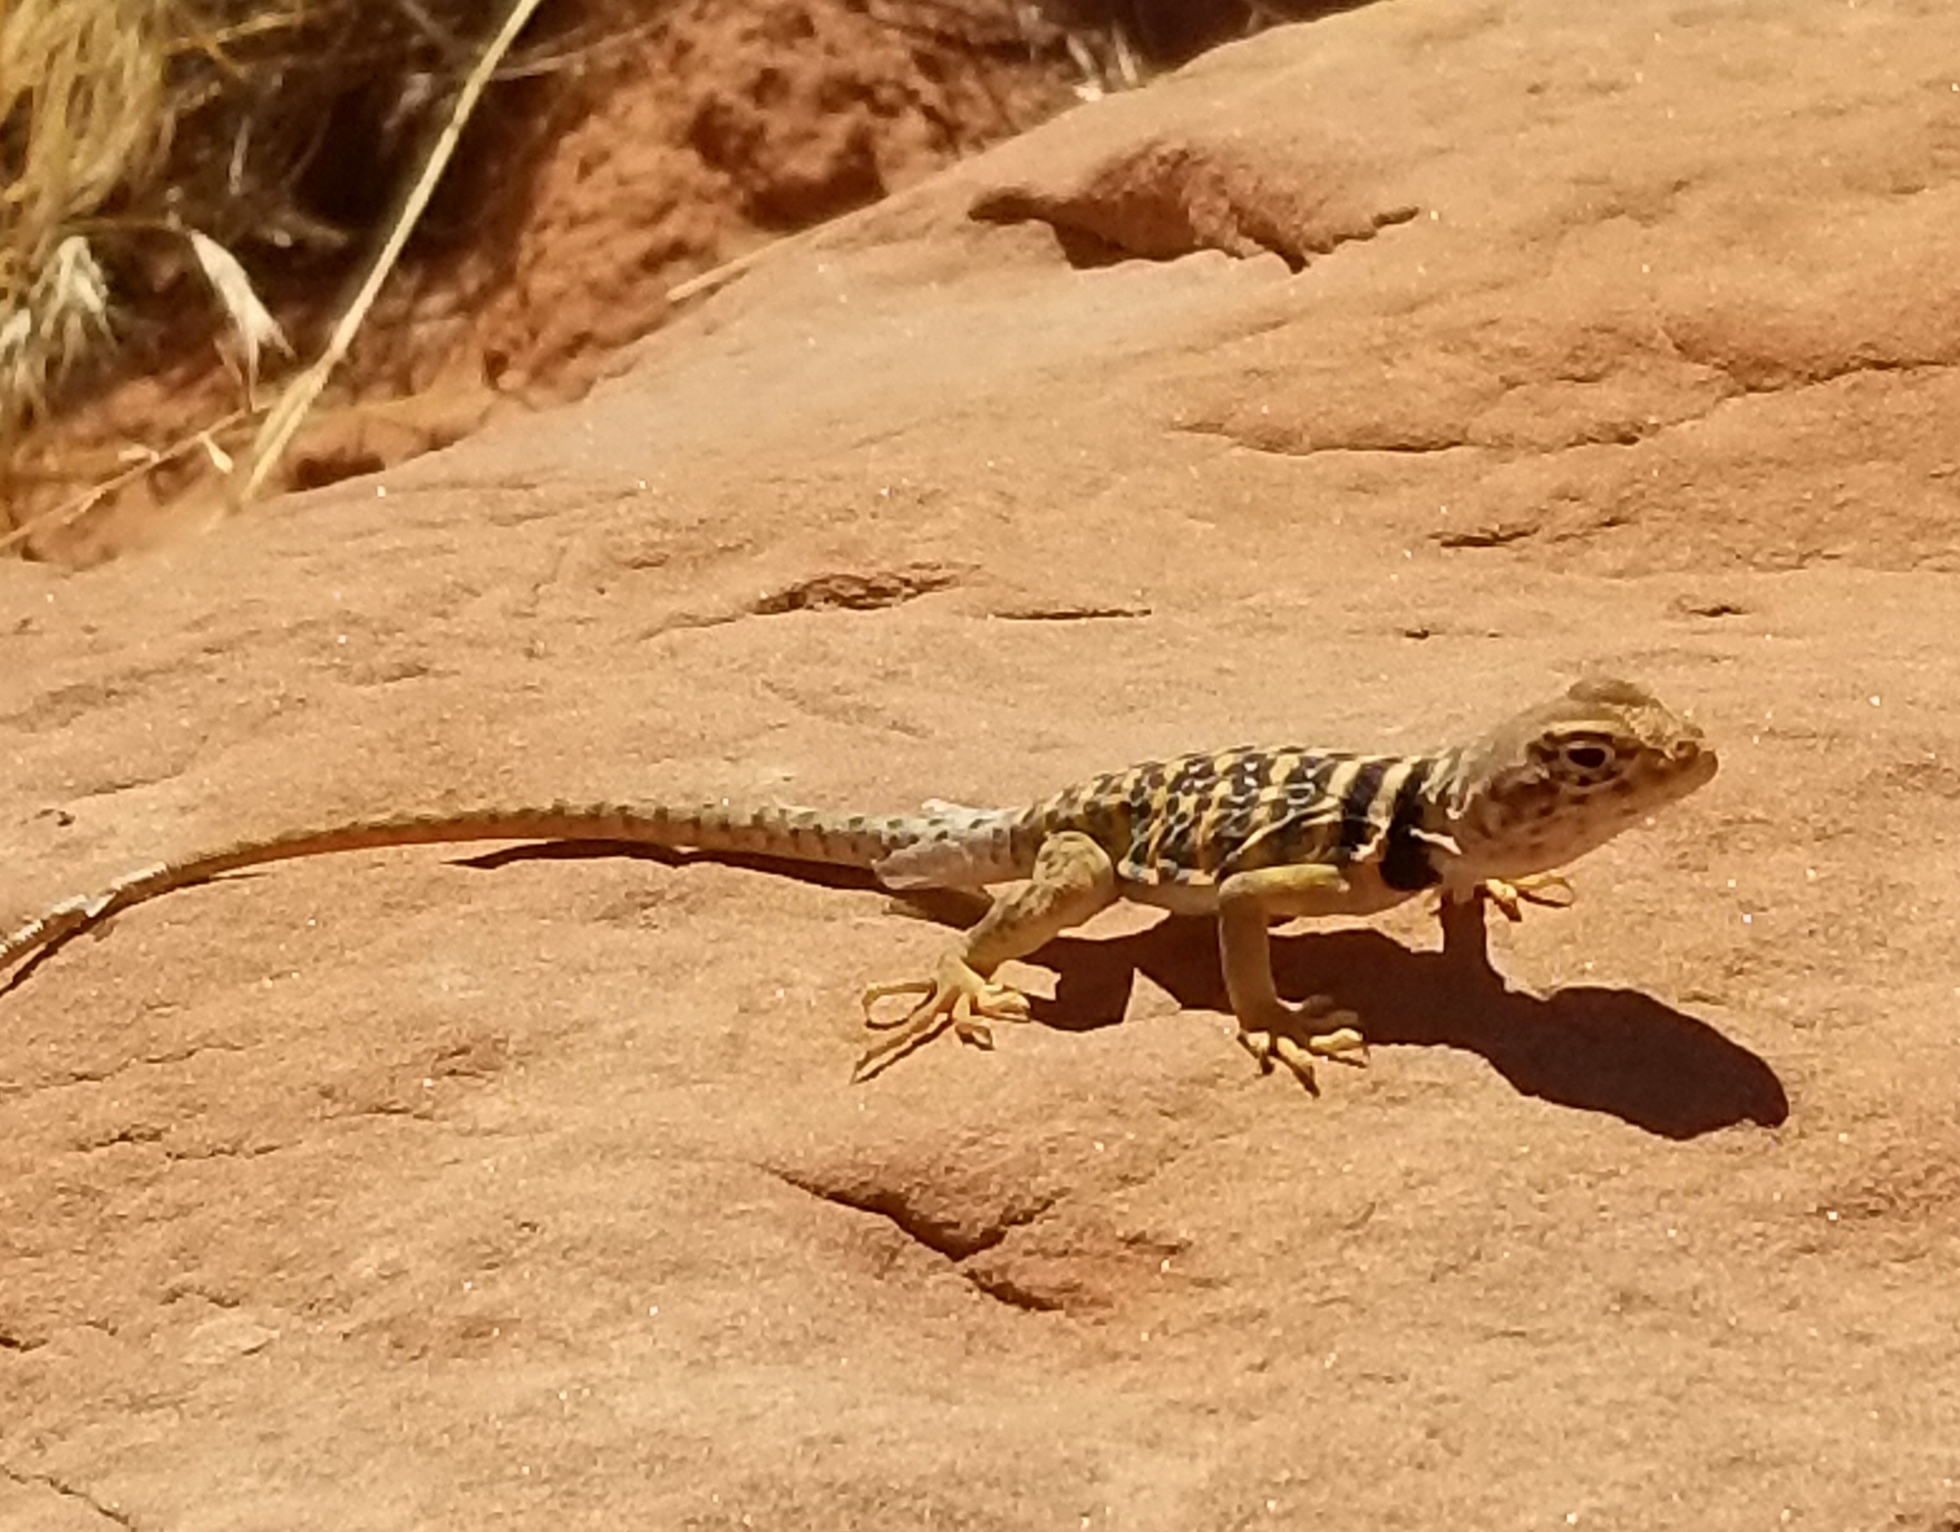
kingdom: Animalia
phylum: Chordata
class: Squamata
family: Crotaphytidae
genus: Crotaphytus
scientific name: Crotaphytus bicinctores
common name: Mojave black-collared lizard
